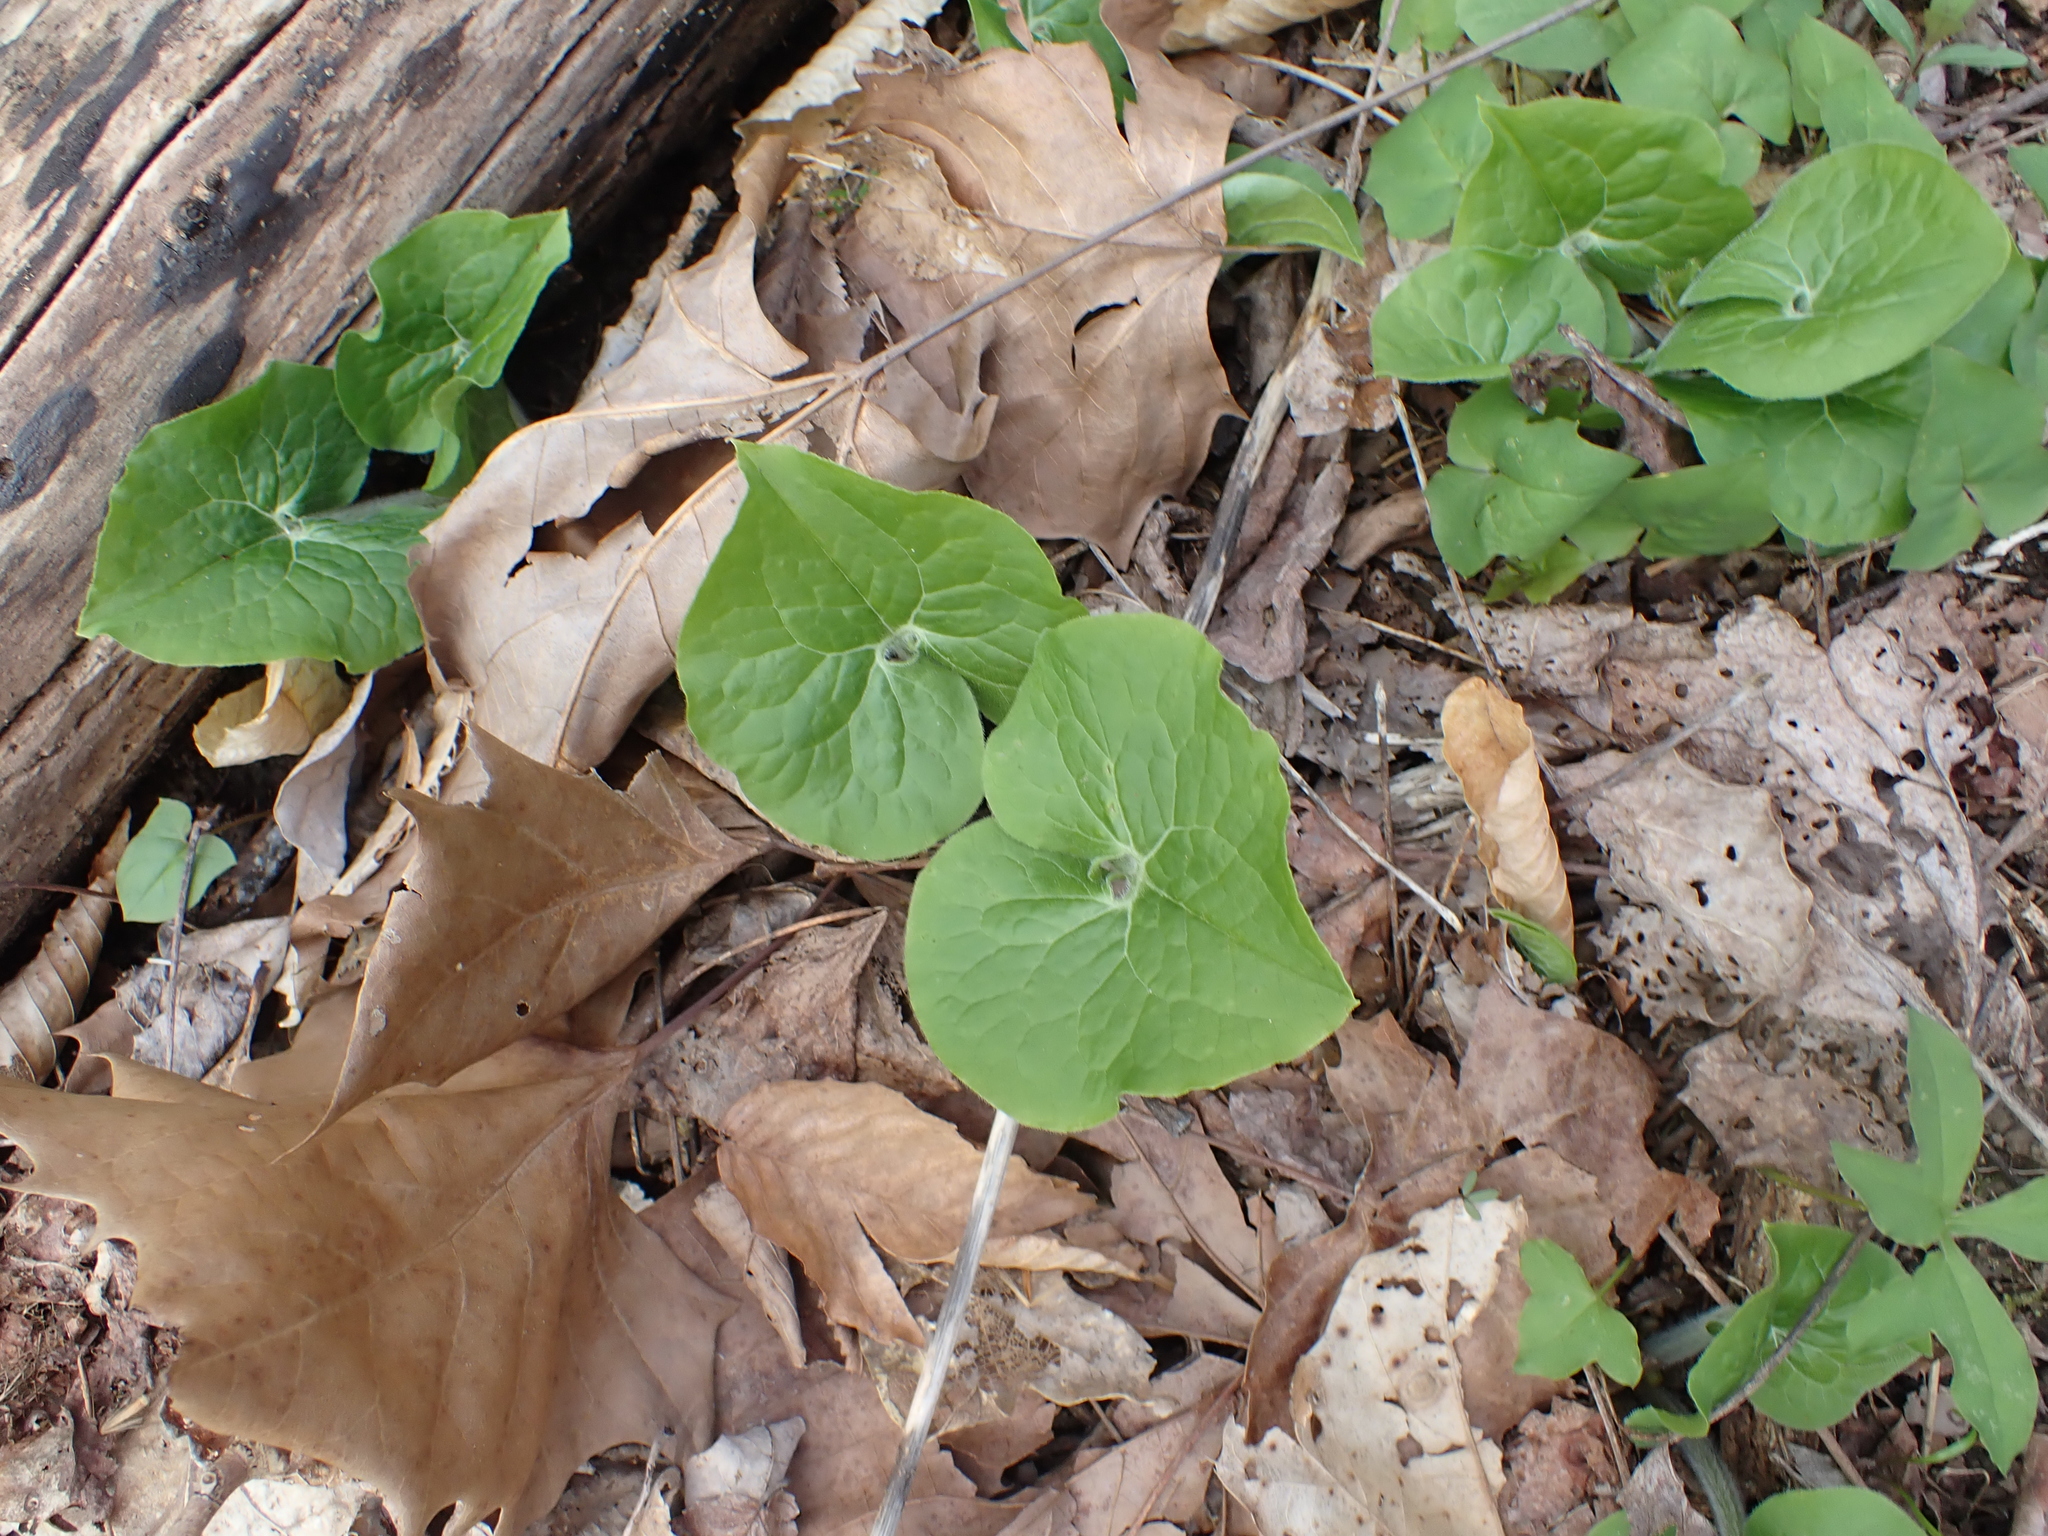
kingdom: Plantae
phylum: Tracheophyta
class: Magnoliopsida
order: Piperales
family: Aristolochiaceae
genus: Asarum
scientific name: Asarum canadense
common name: Wild ginger
